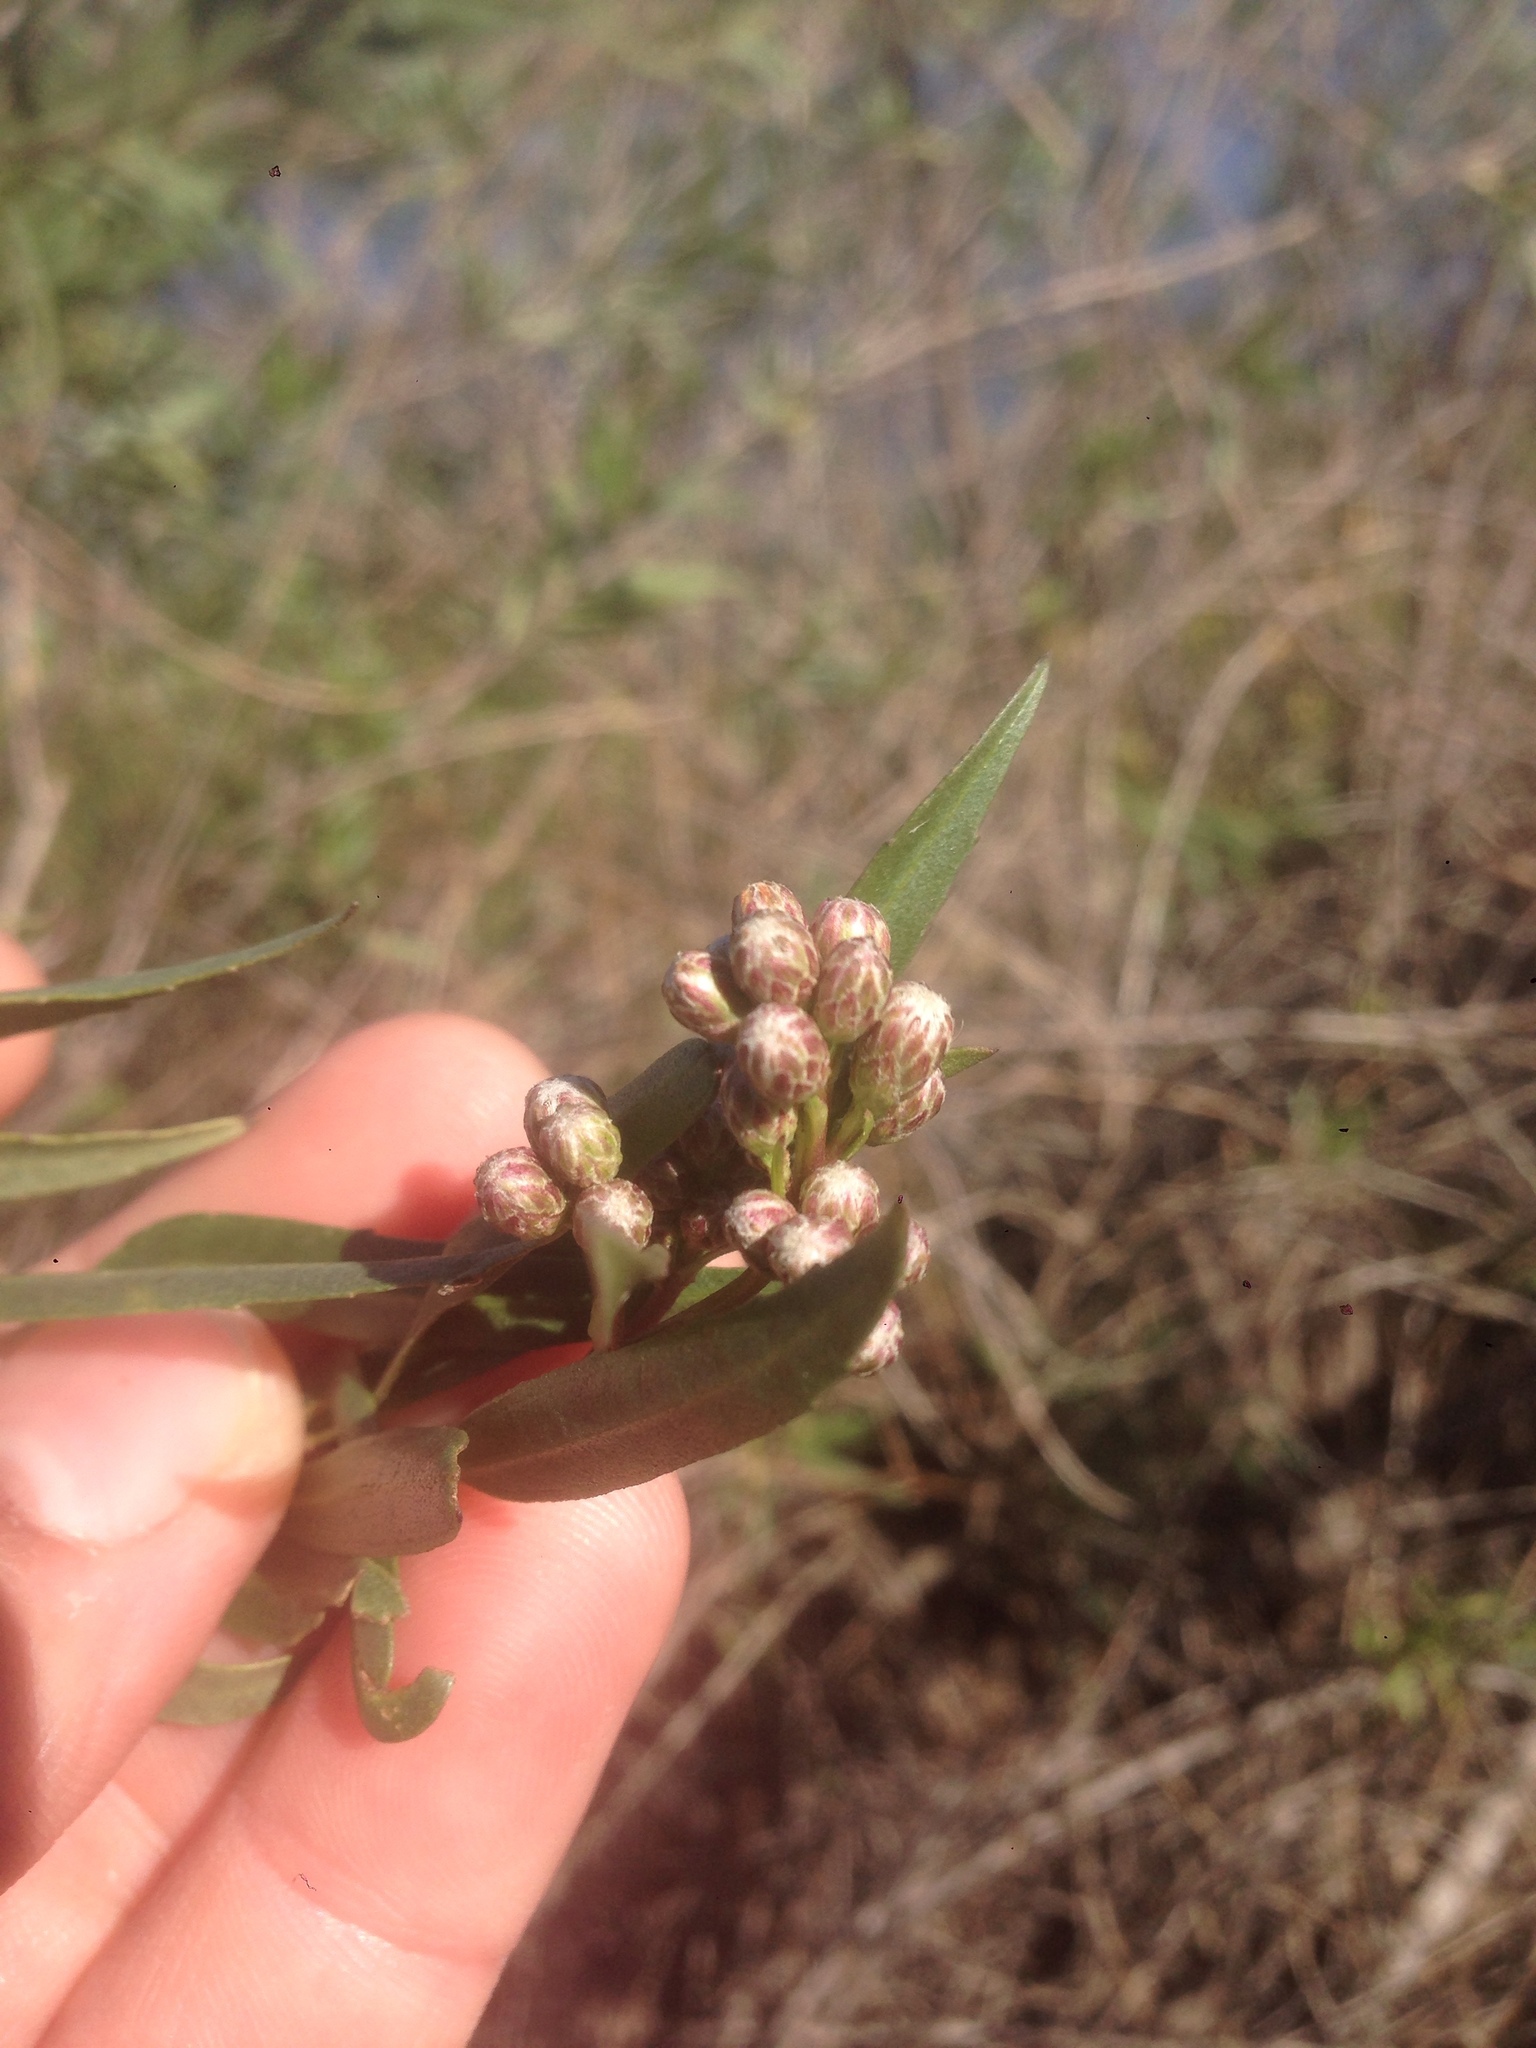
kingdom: Plantae
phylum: Tracheophyta
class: Magnoliopsida
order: Asterales
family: Asteraceae
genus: Baccharis
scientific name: Baccharis salicifolia
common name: Sticky baccharis
